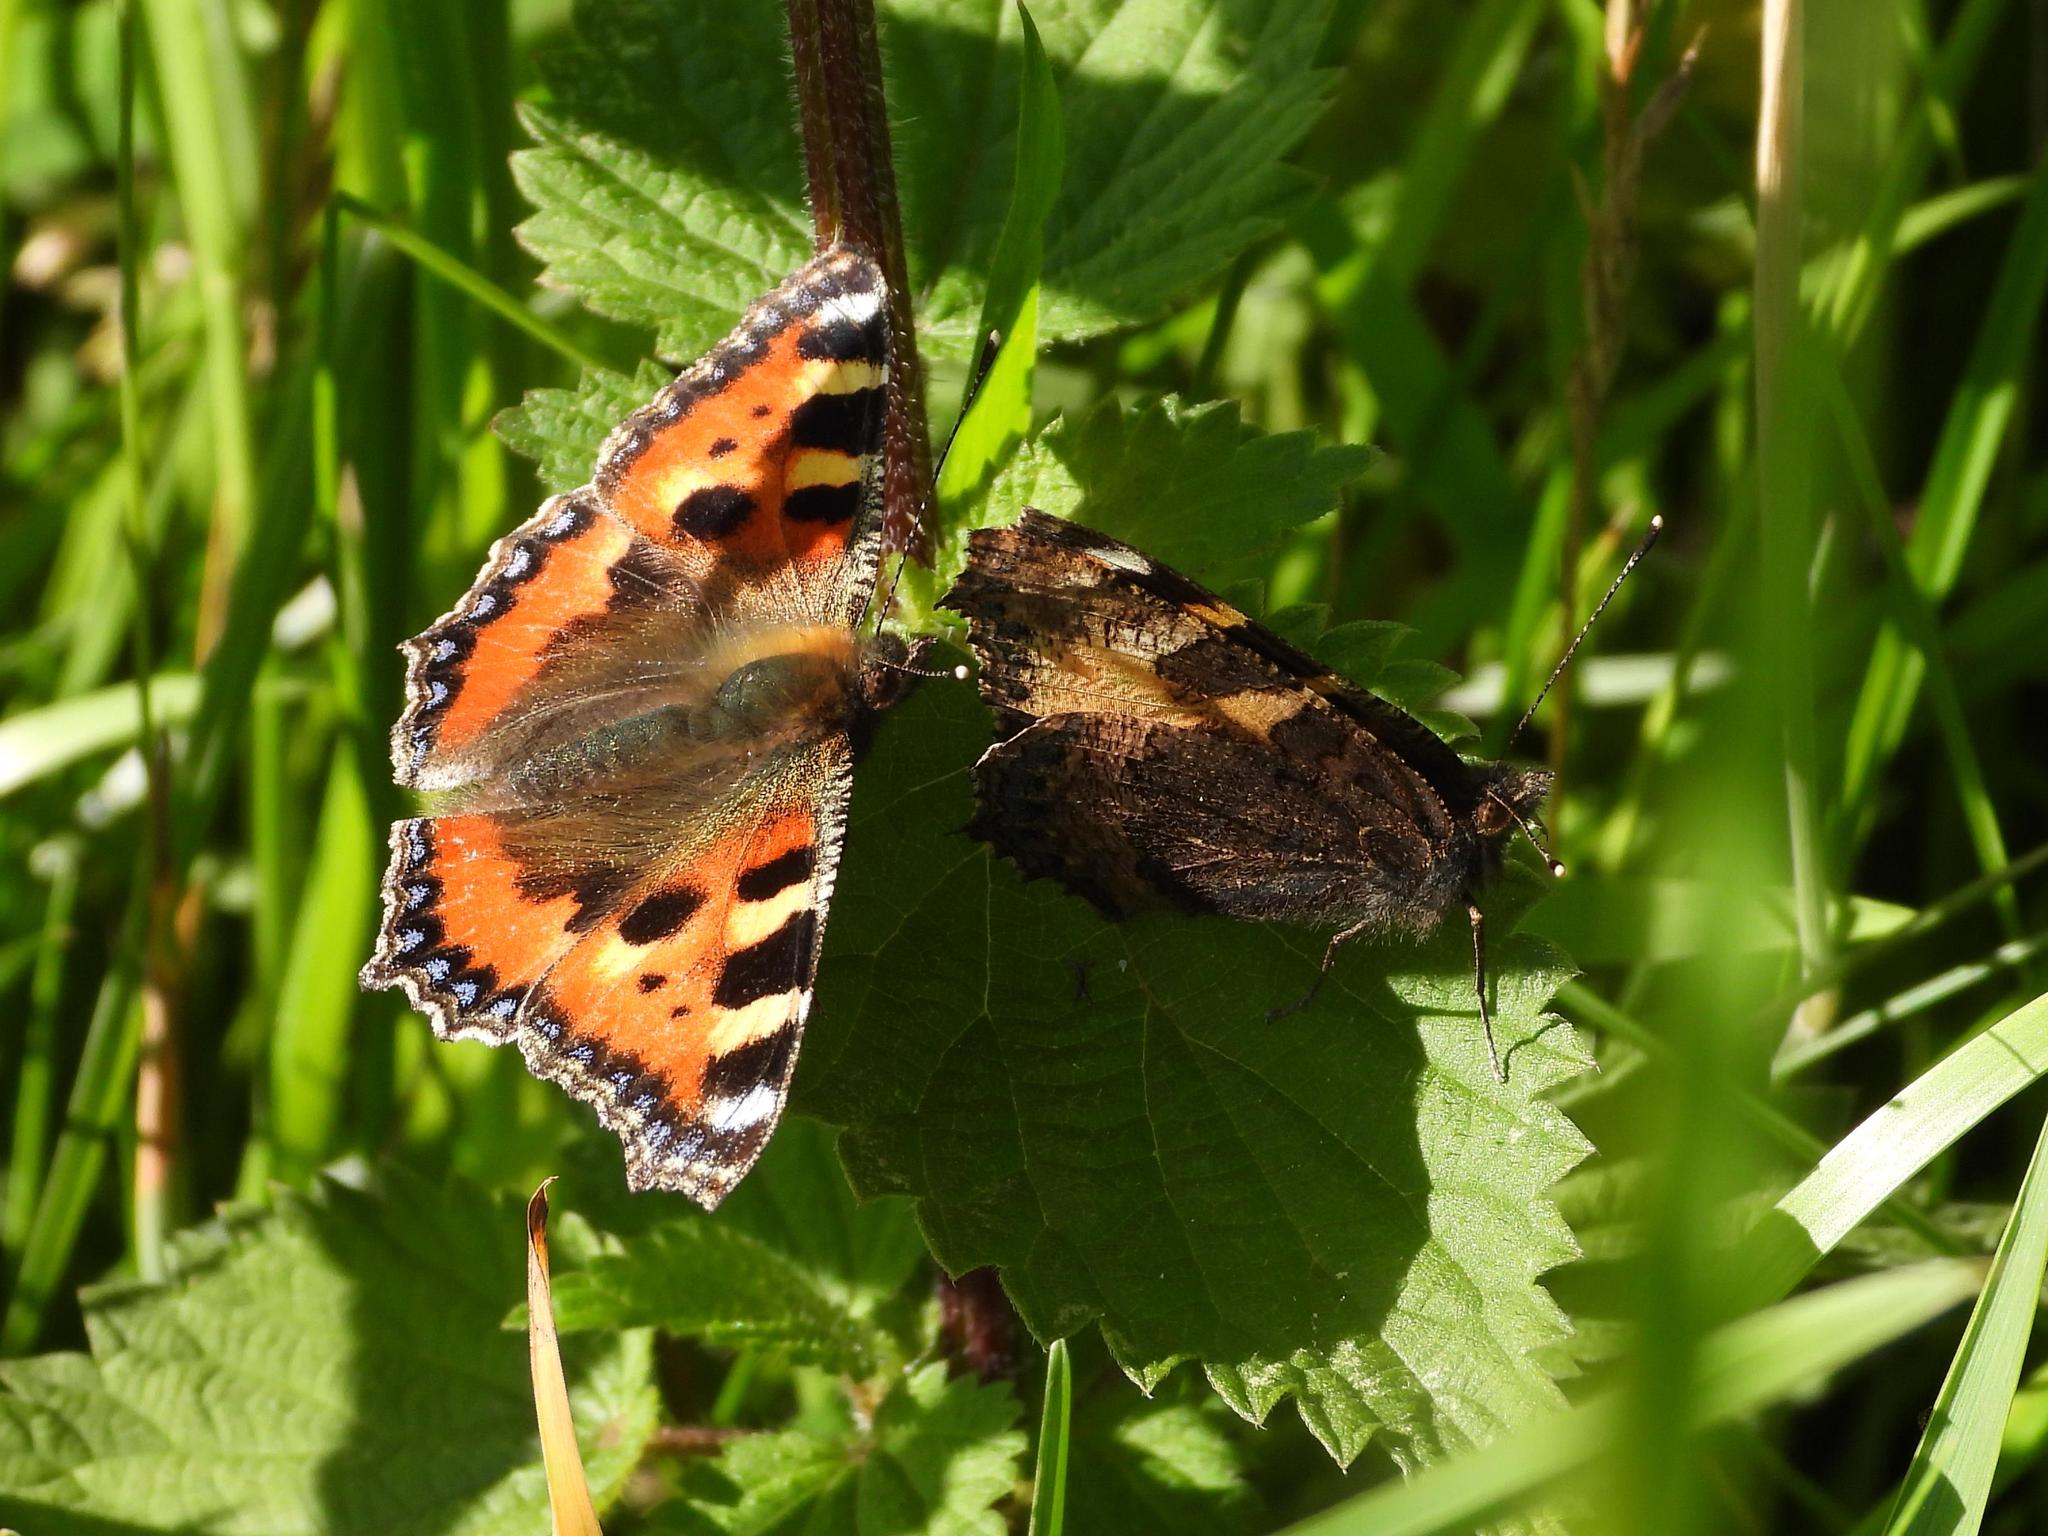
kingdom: Animalia
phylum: Arthropoda
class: Insecta
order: Lepidoptera
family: Nymphalidae
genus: Aglais
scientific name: Aglais urticae
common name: Small tortoiseshell
